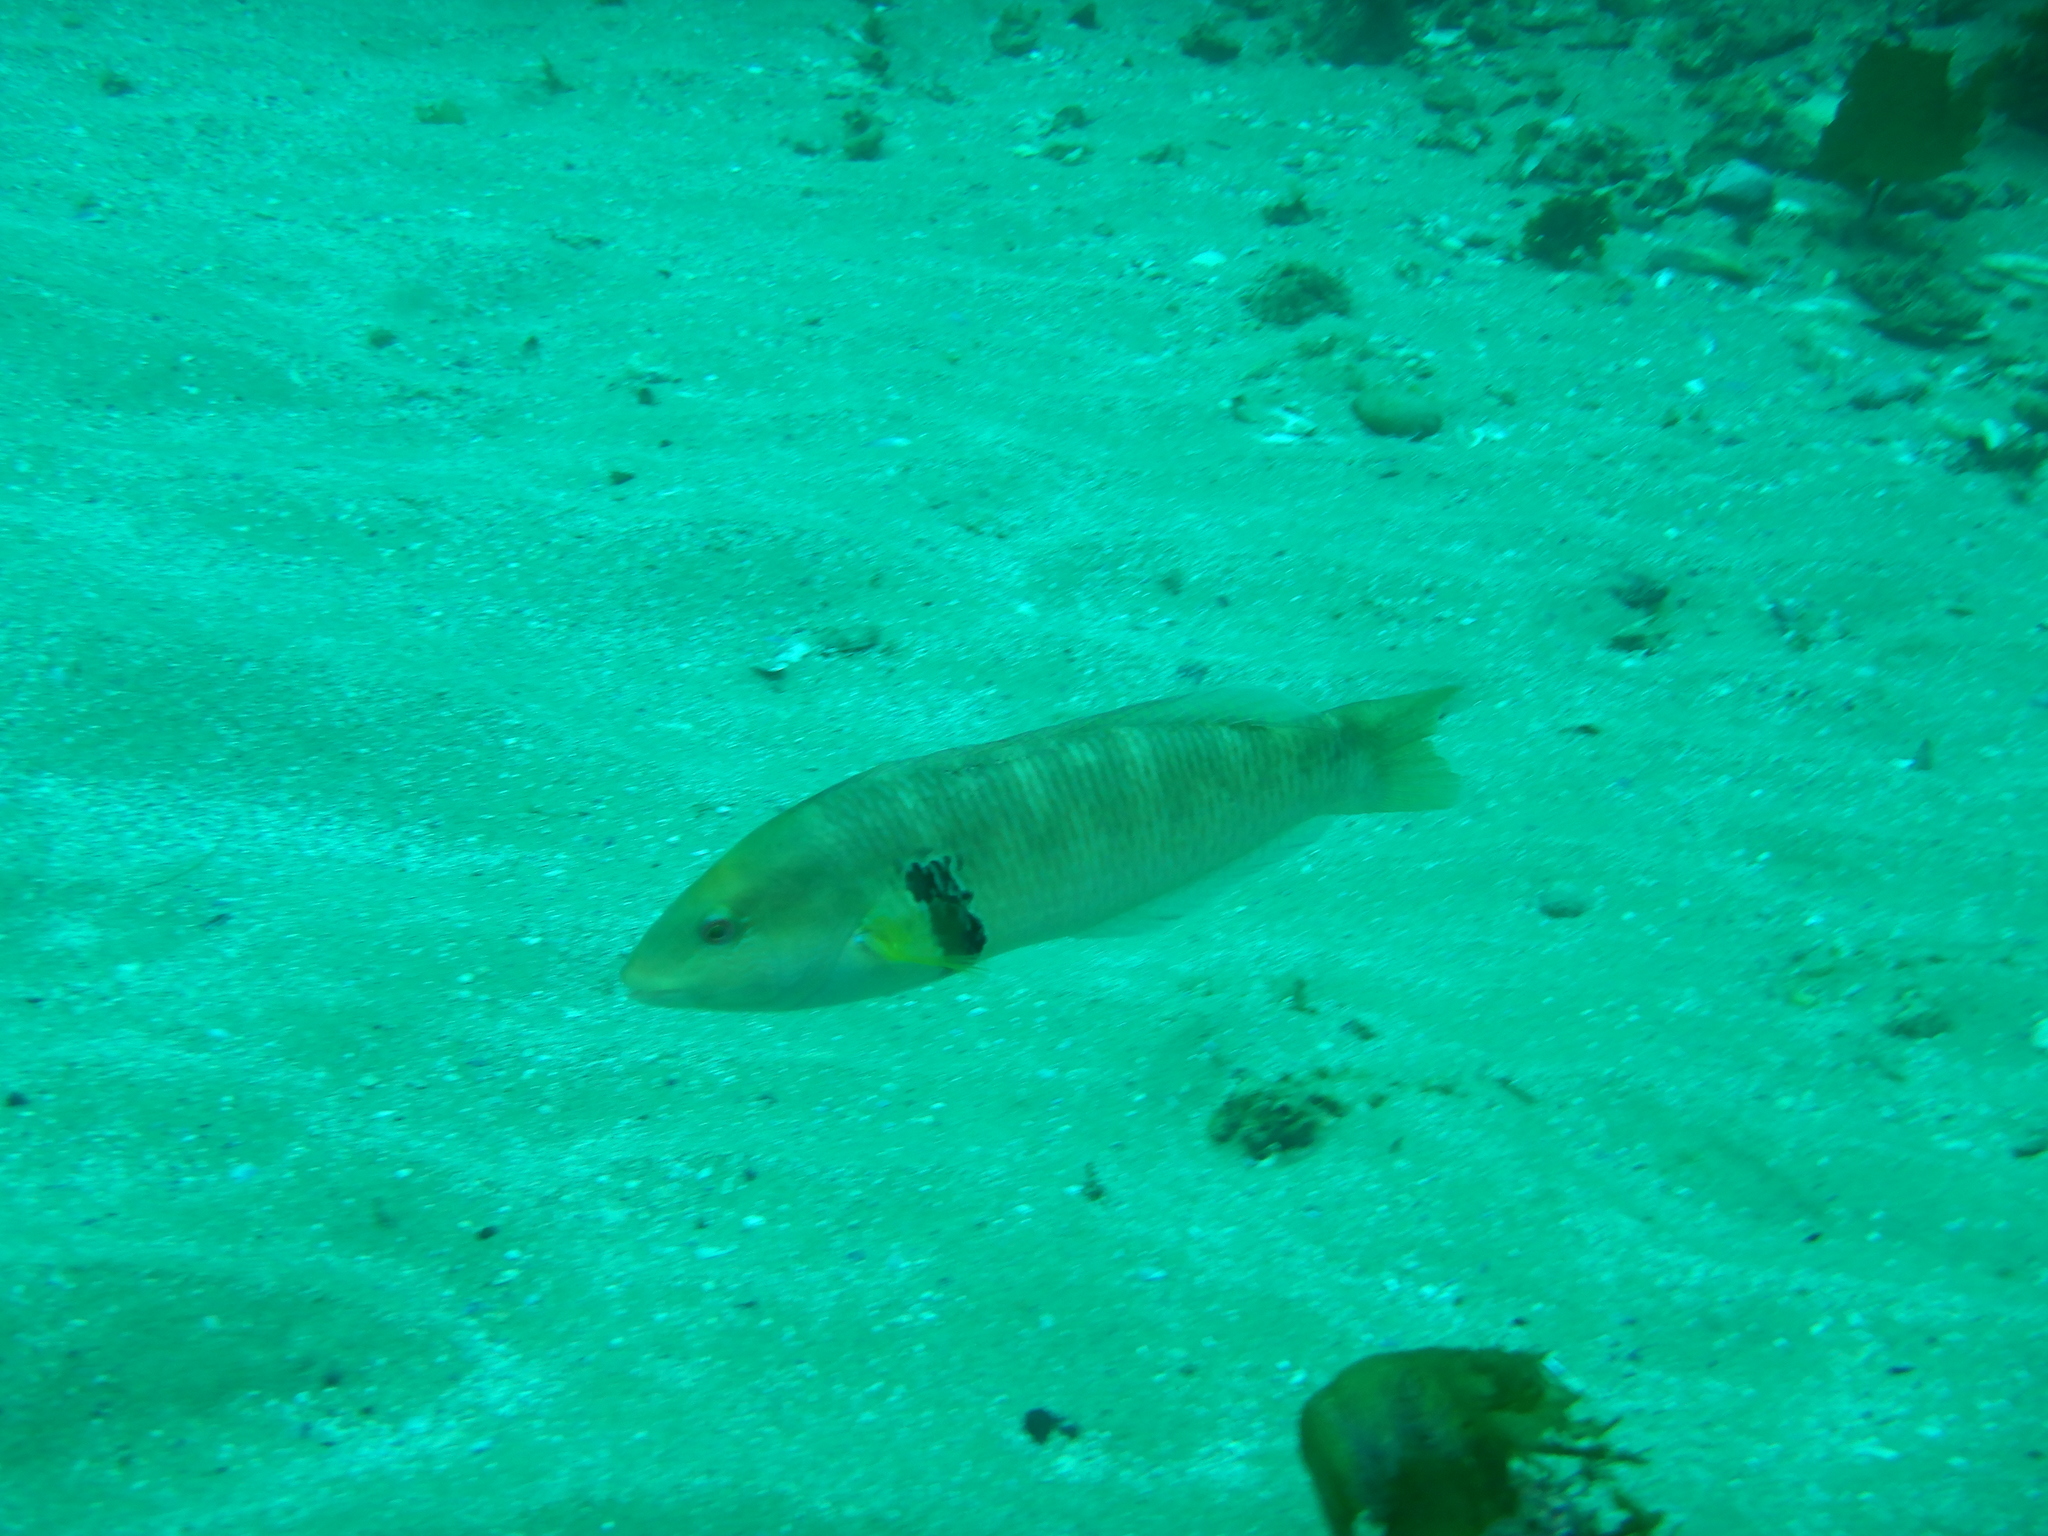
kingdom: Animalia
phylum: Chordata
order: Perciformes
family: Labridae
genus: Halichoeres
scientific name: Halichoeres semicinctus
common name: Rock wrasse
